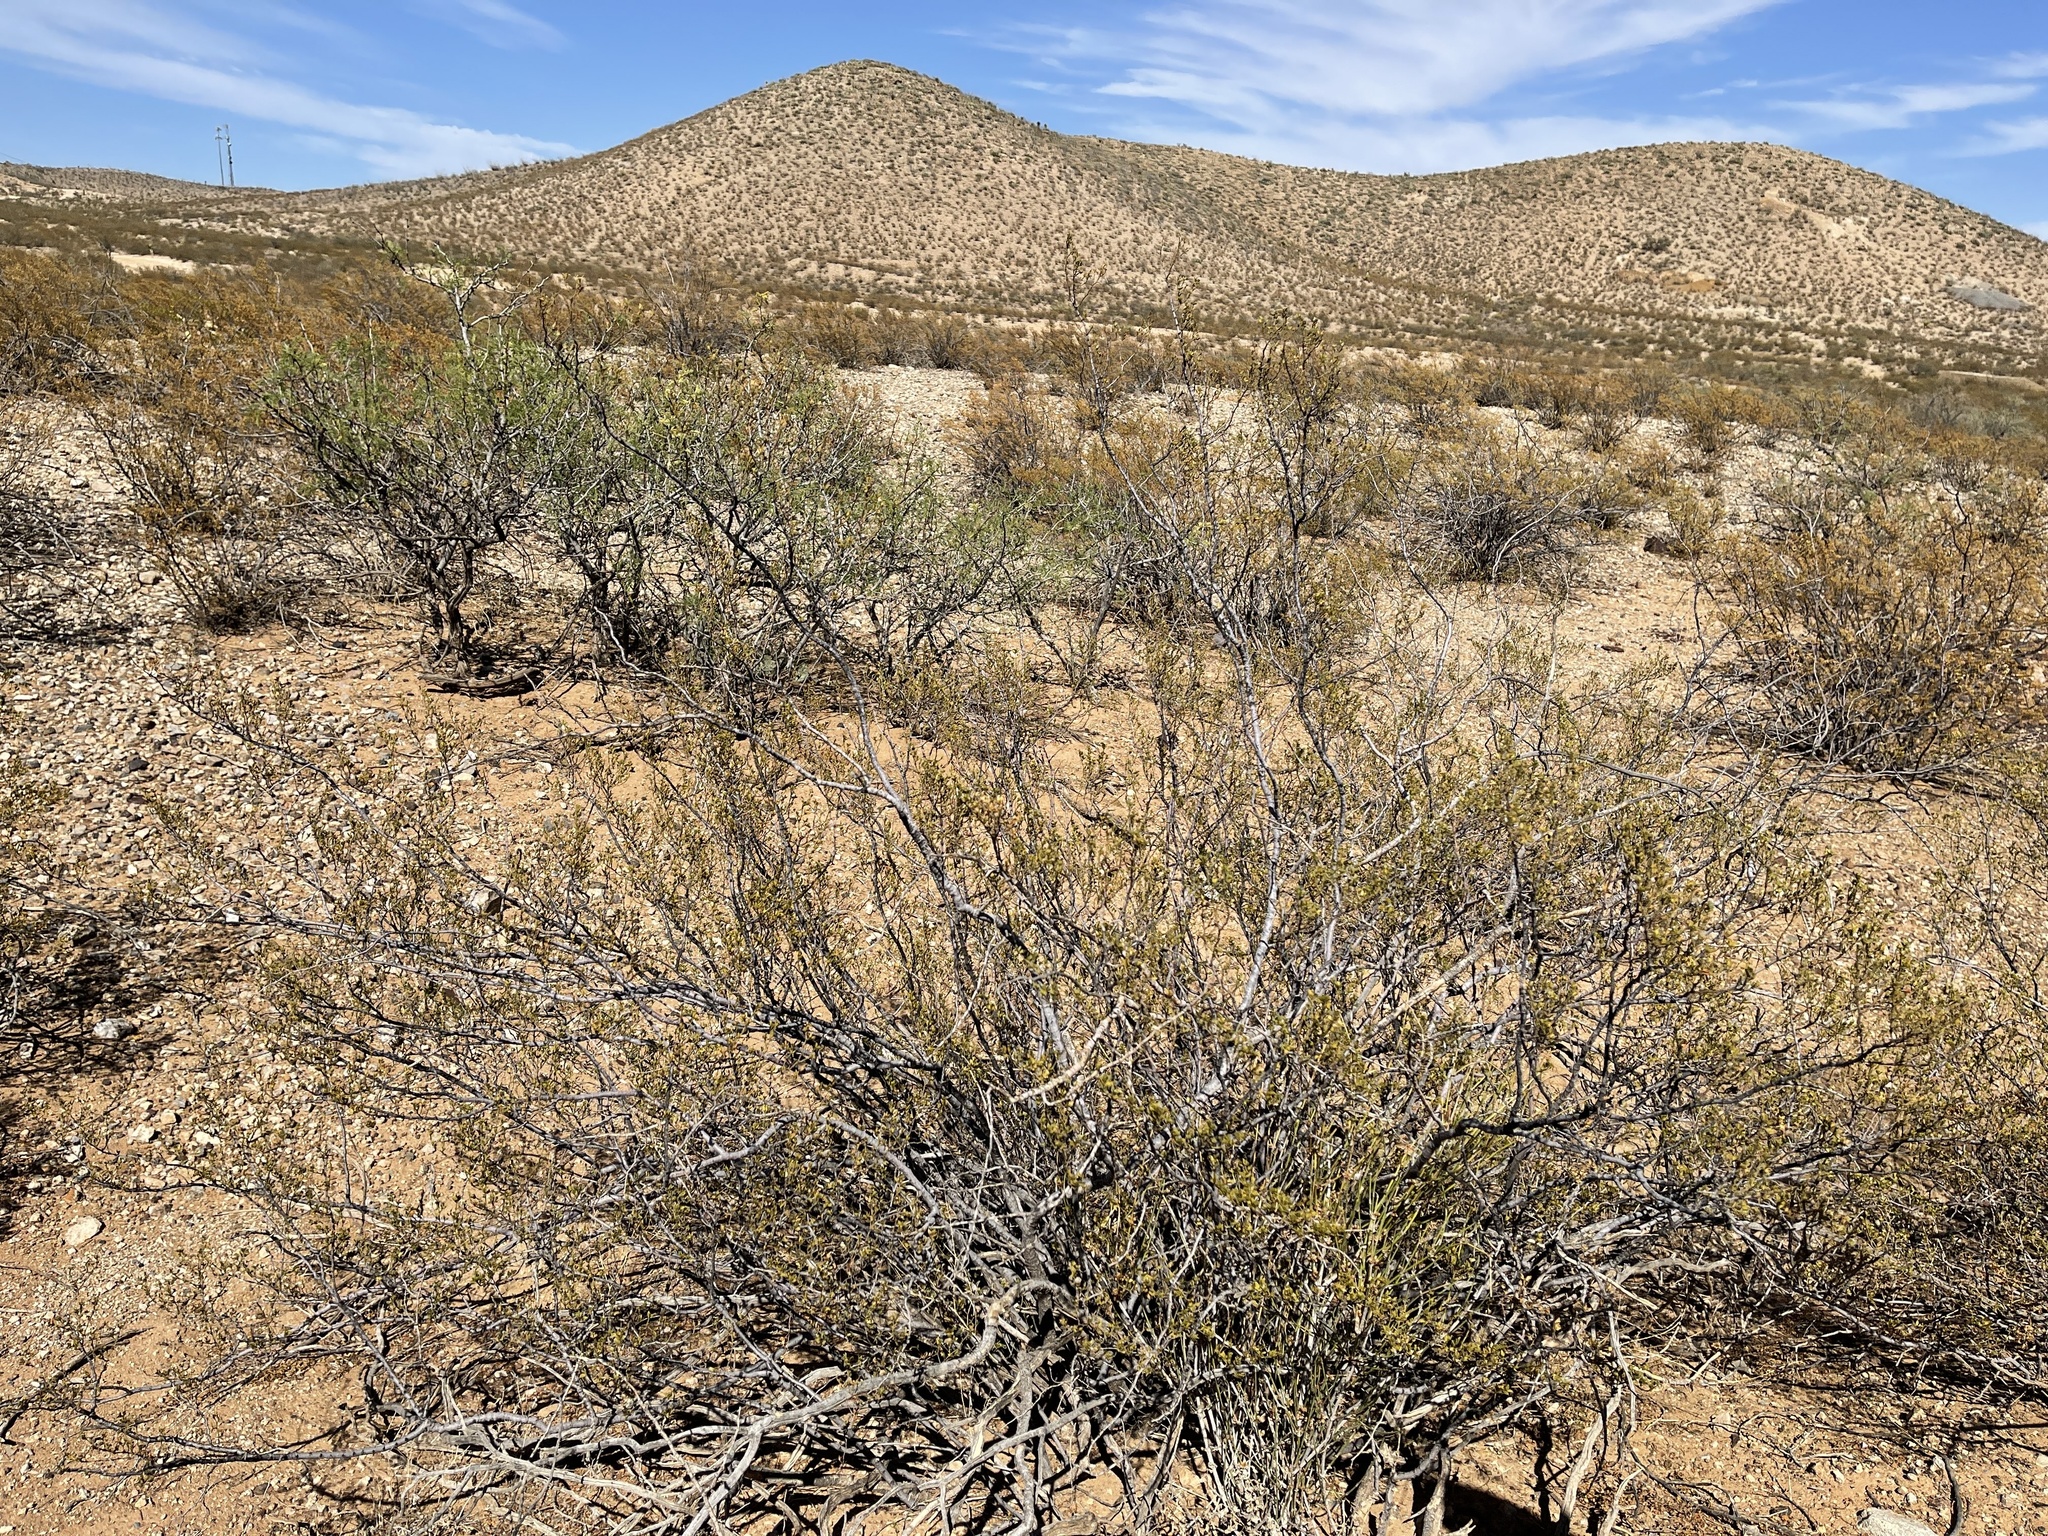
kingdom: Plantae
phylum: Tracheophyta
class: Magnoliopsida
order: Zygophyllales
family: Zygophyllaceae
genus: Larrea
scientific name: Larrea tridentata
